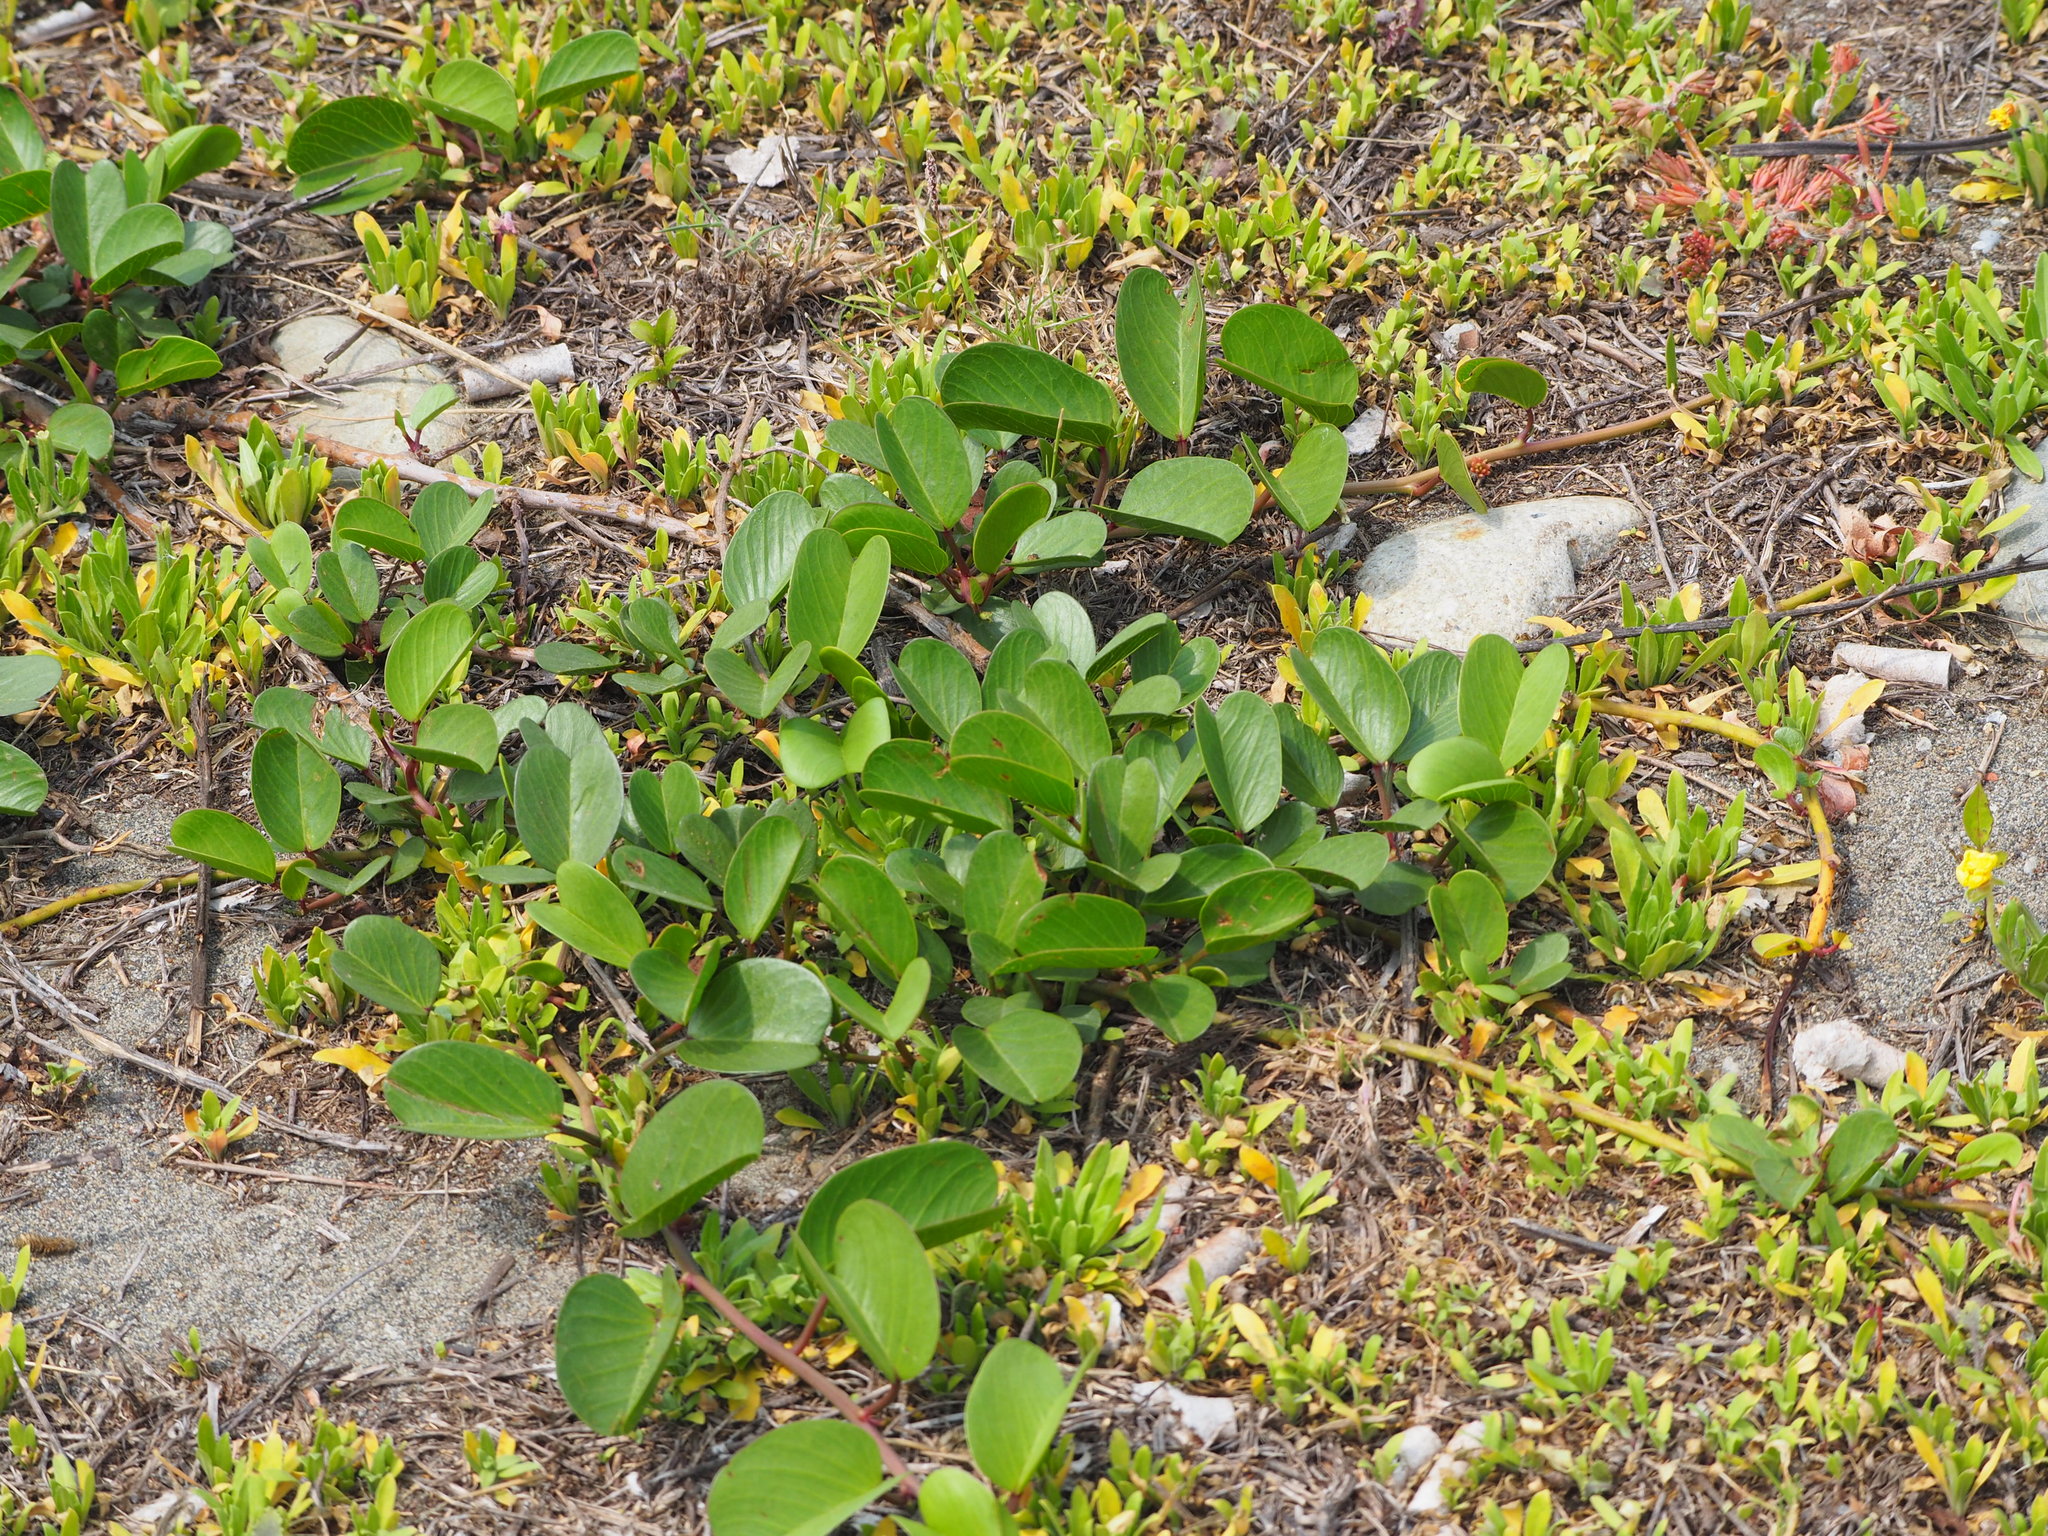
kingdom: Plantae
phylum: Tracheophyta
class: Magnoliopsida
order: Solanales
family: Convolvulaceae
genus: Ipomoea
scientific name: Ipomoea pes-caprae
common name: Beach morning glory
